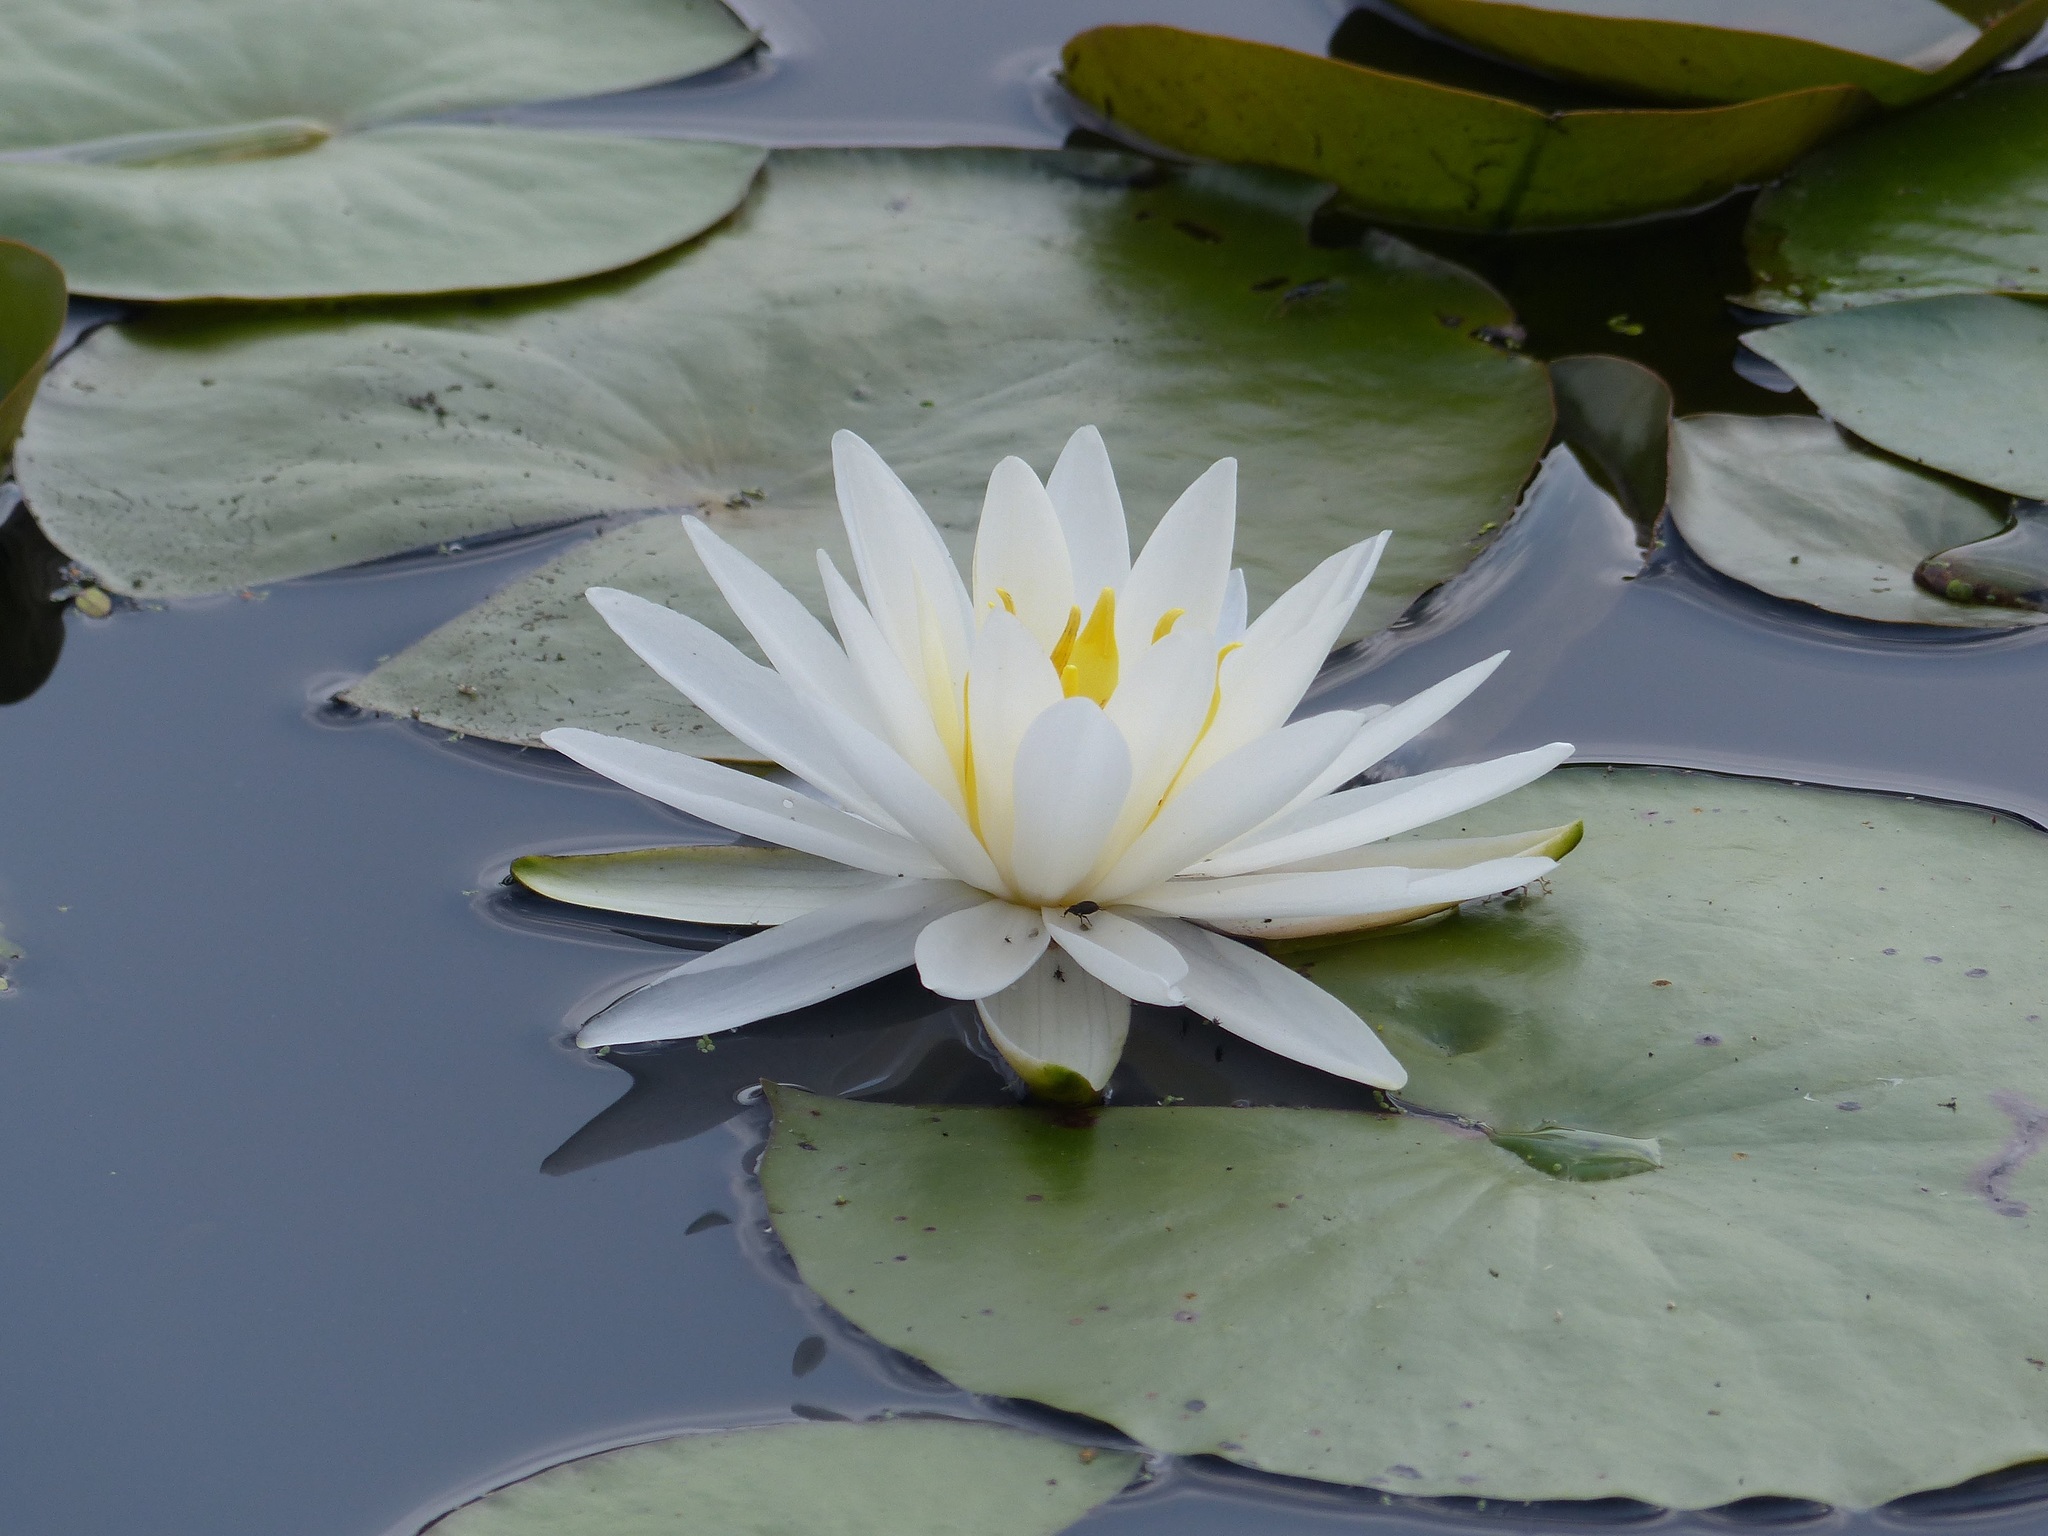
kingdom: Plantae
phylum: Tracheophyta
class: Magnoliopsida
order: Nymphaeales
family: Nymphaeaceae
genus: Nymphaea
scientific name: Nymphaea odorata
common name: Fragrant water-lily
